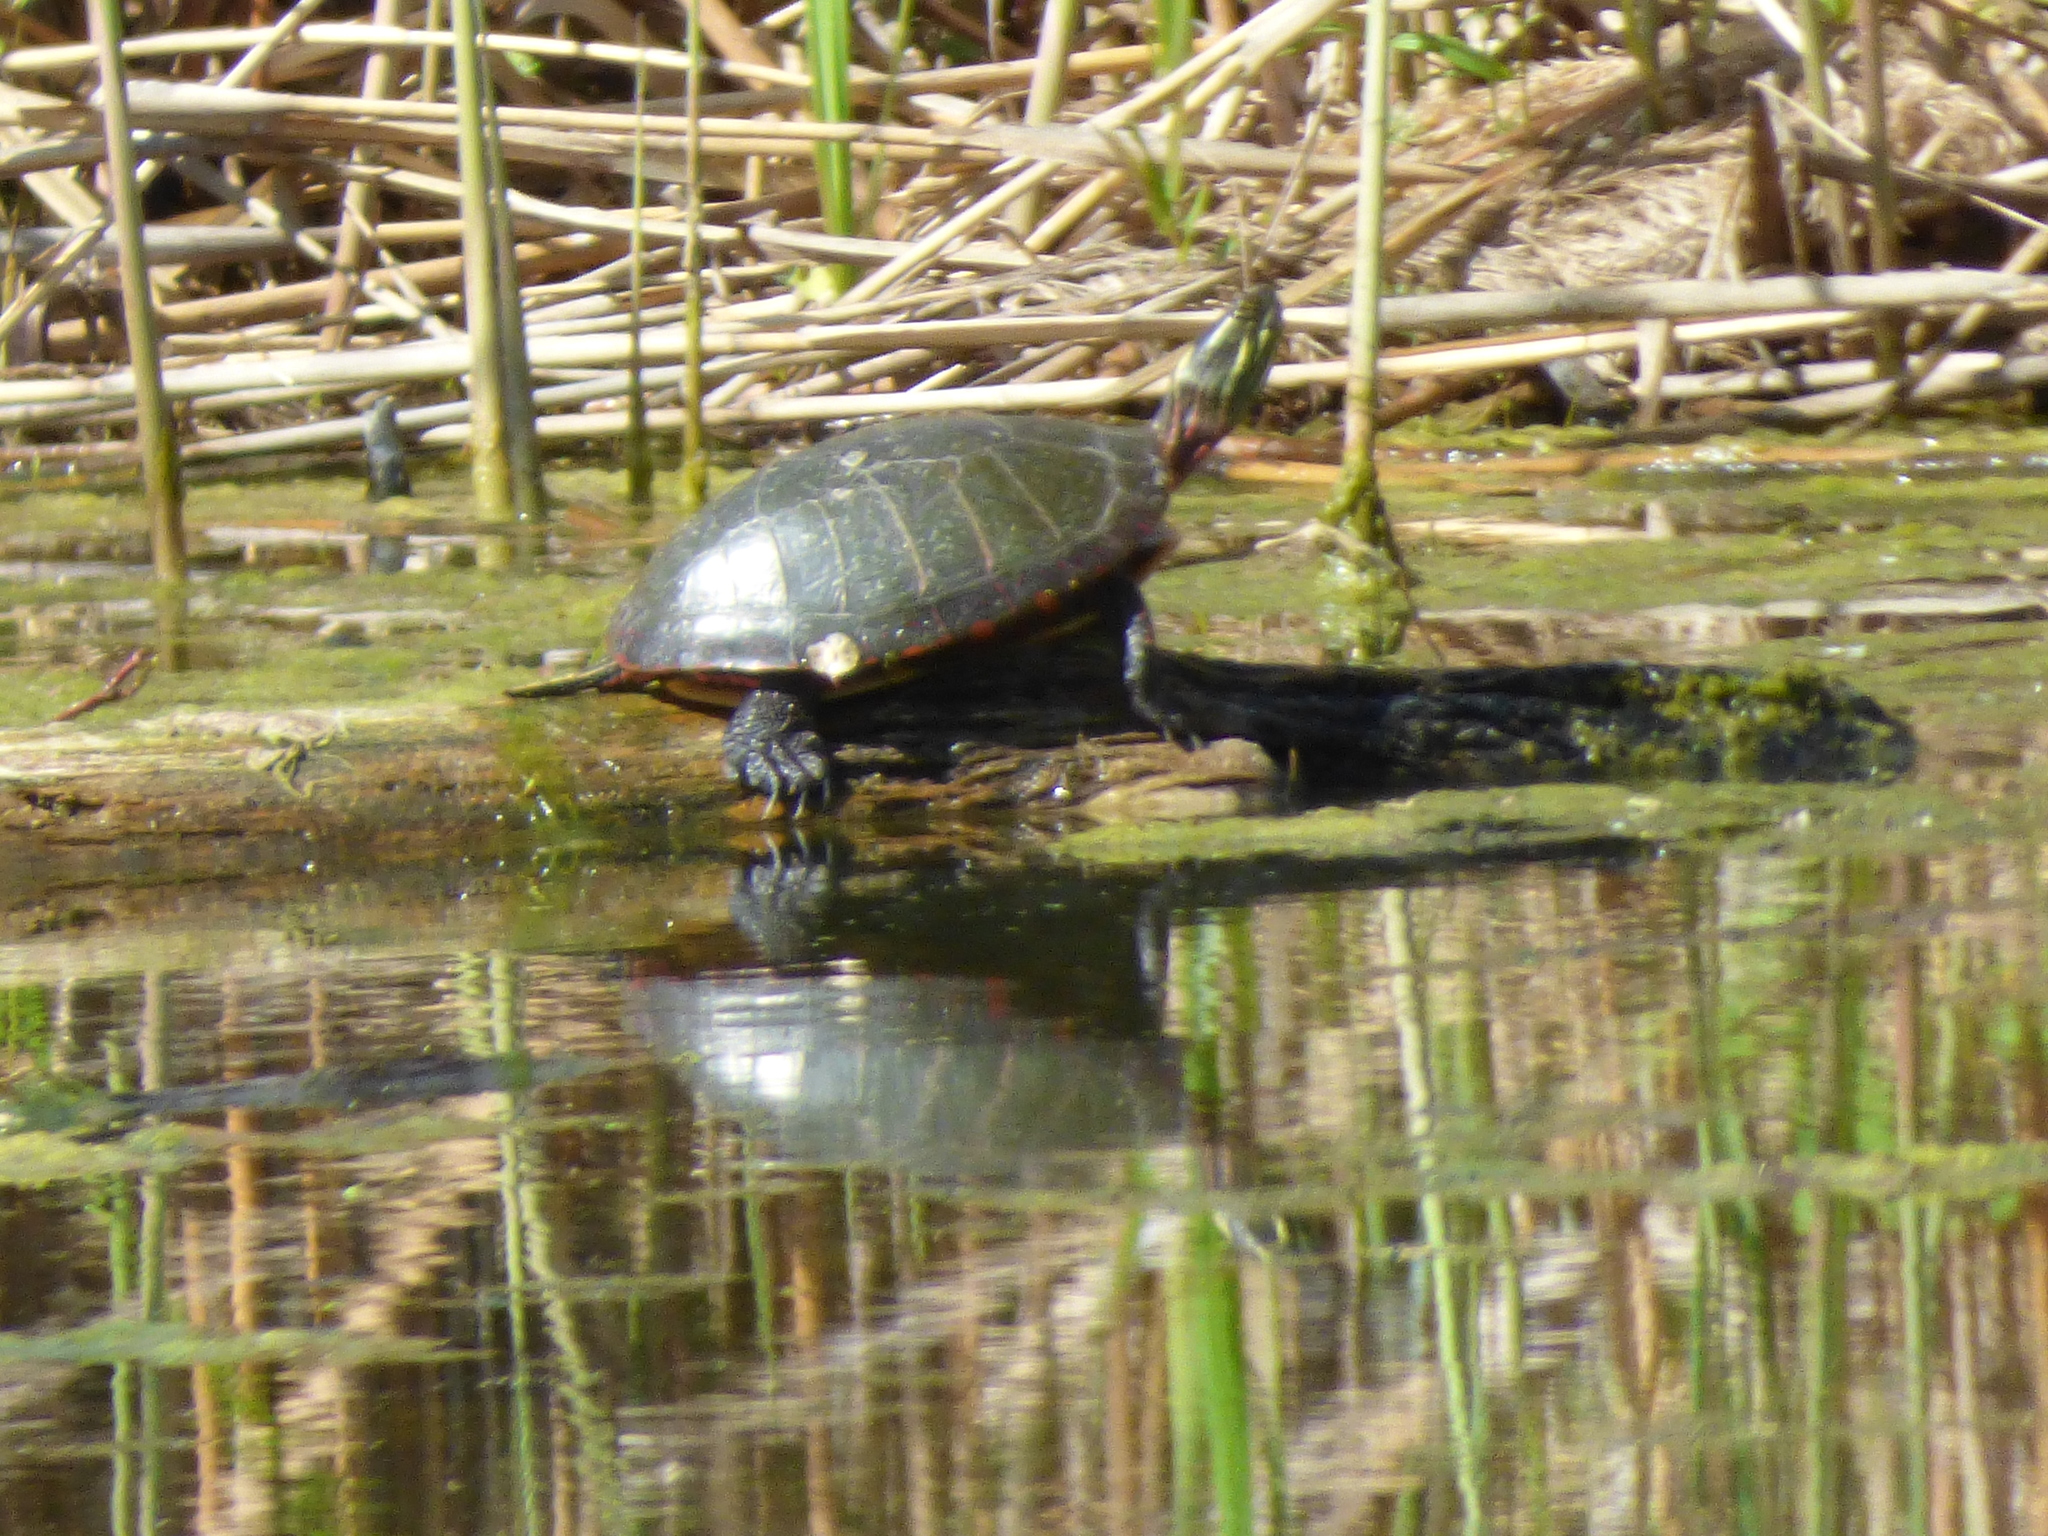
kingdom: Animalia
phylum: Chordata
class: Testudines
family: Emydidae
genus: Chrysemys
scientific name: Chrysemys picta
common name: Painted turtle
